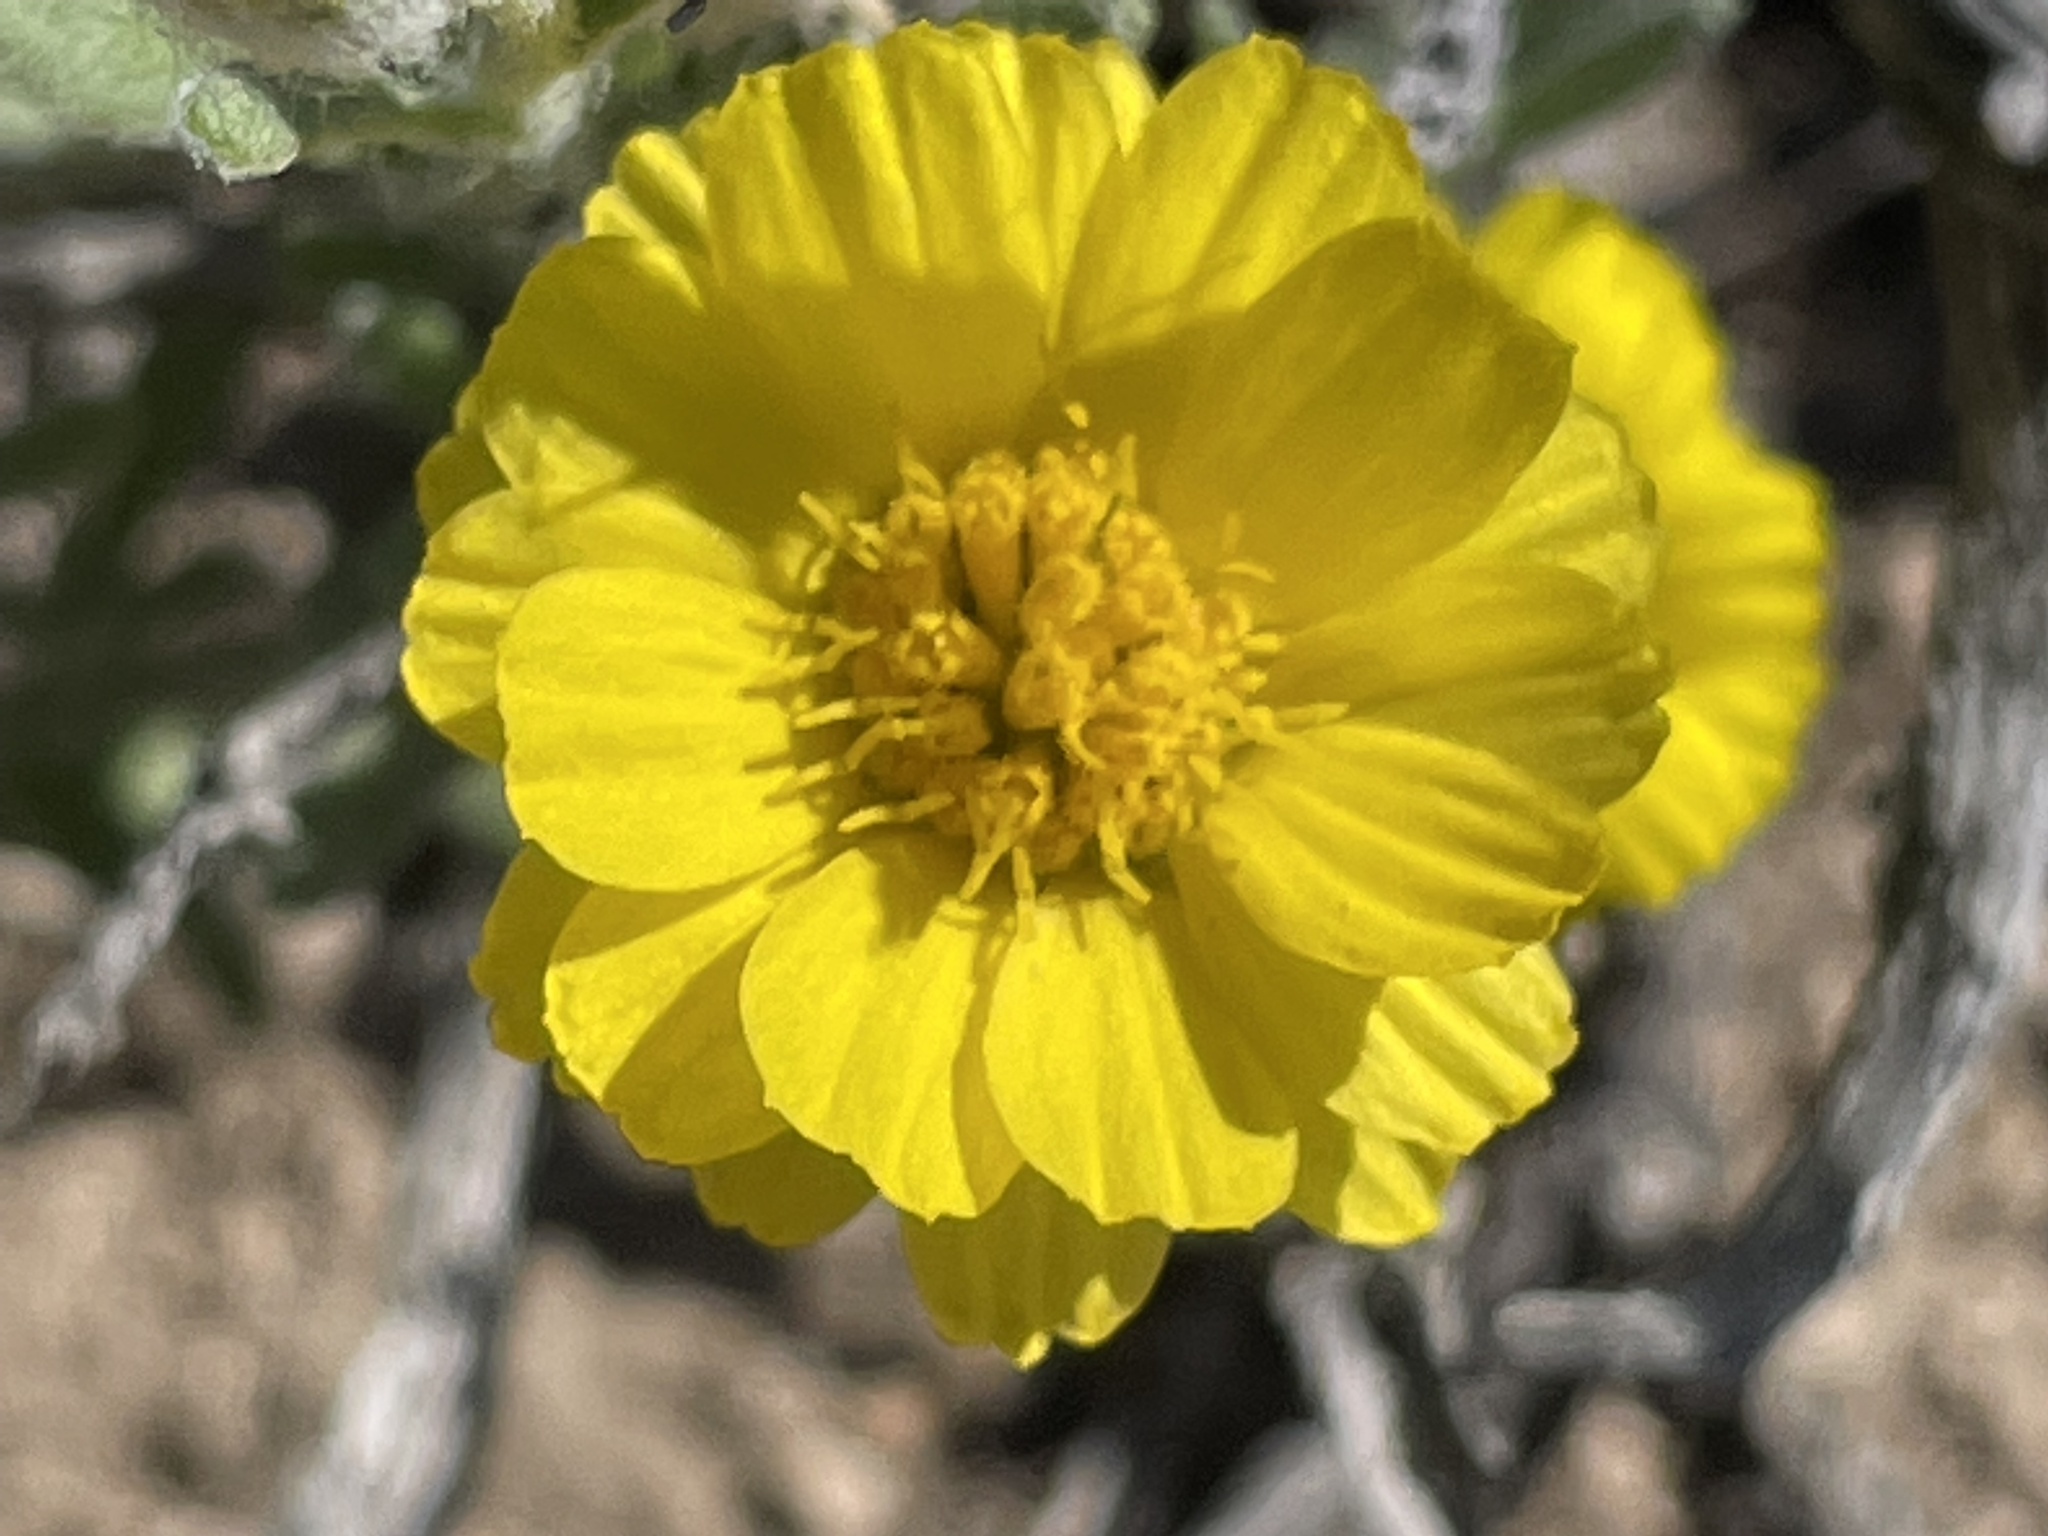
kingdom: Plantae
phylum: Tracheophyta
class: Magnoliopsida
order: Asterales
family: Asteraceae
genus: Baileya
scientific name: Baileya pleniradiata
